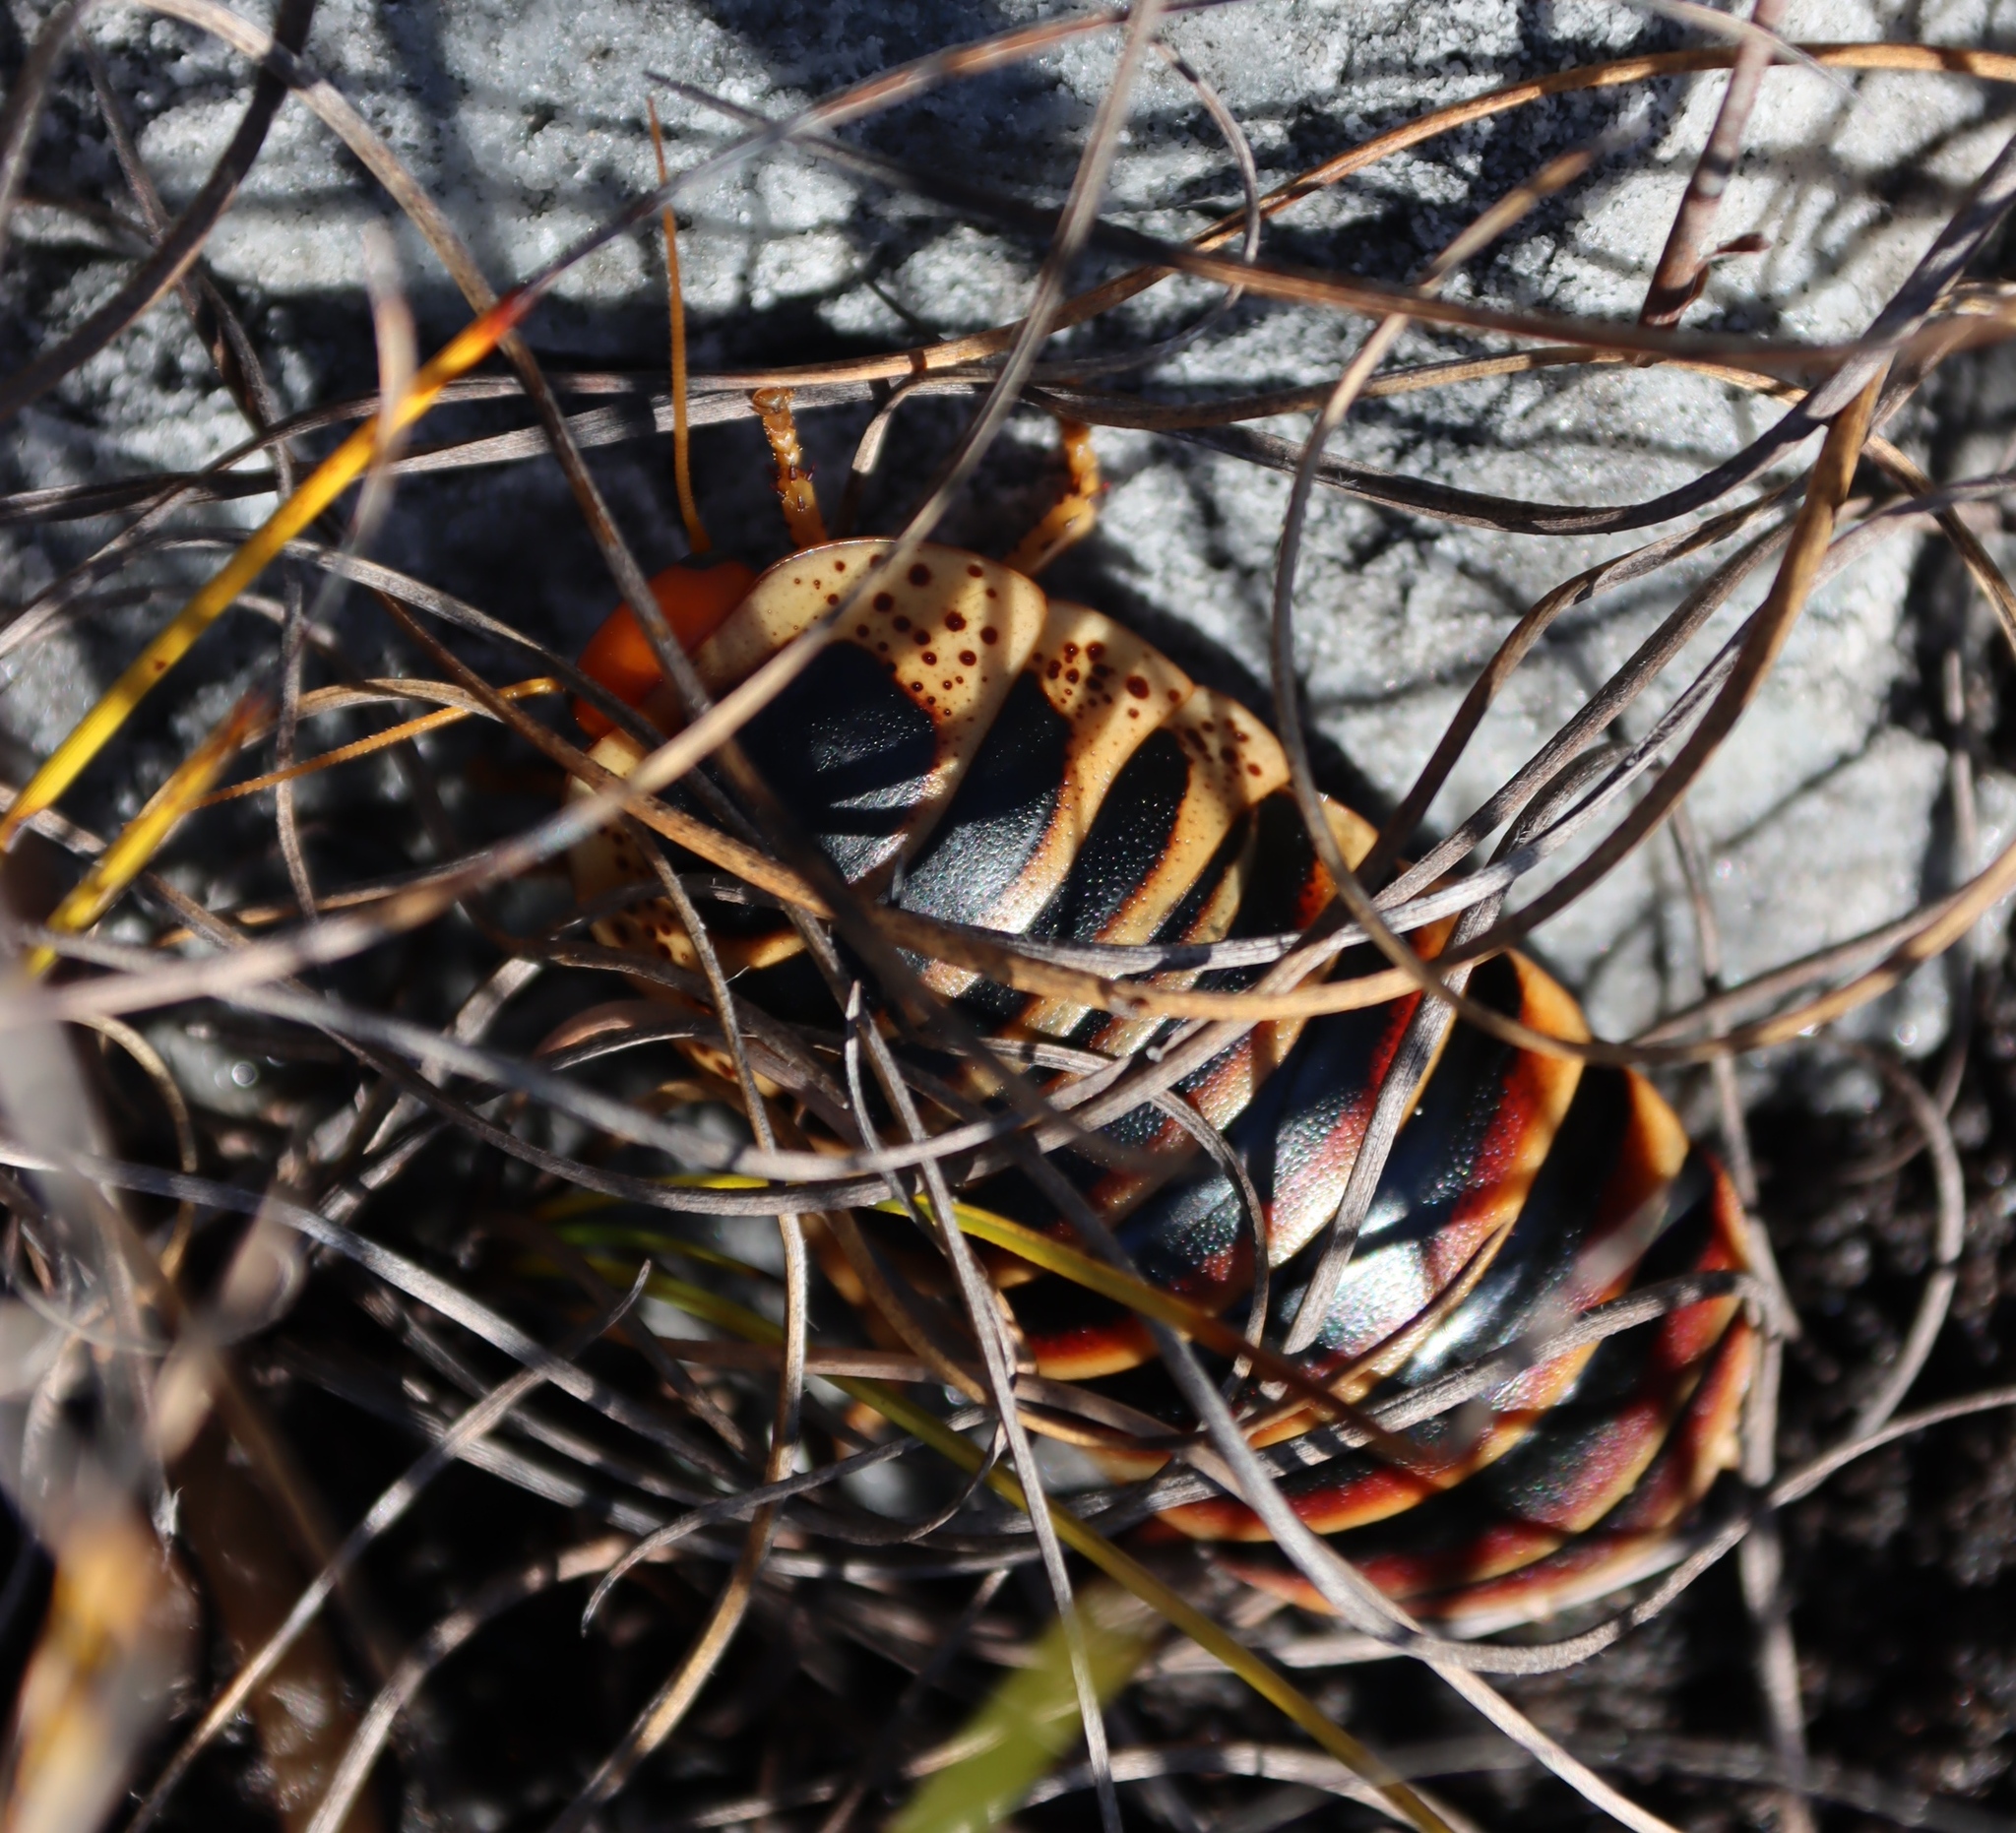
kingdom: Animalia
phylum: Arthropoda
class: Insecta
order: Blattodea
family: Blaberidae
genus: Aptera
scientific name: Aptera fusca
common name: Cape mountain cockroach
